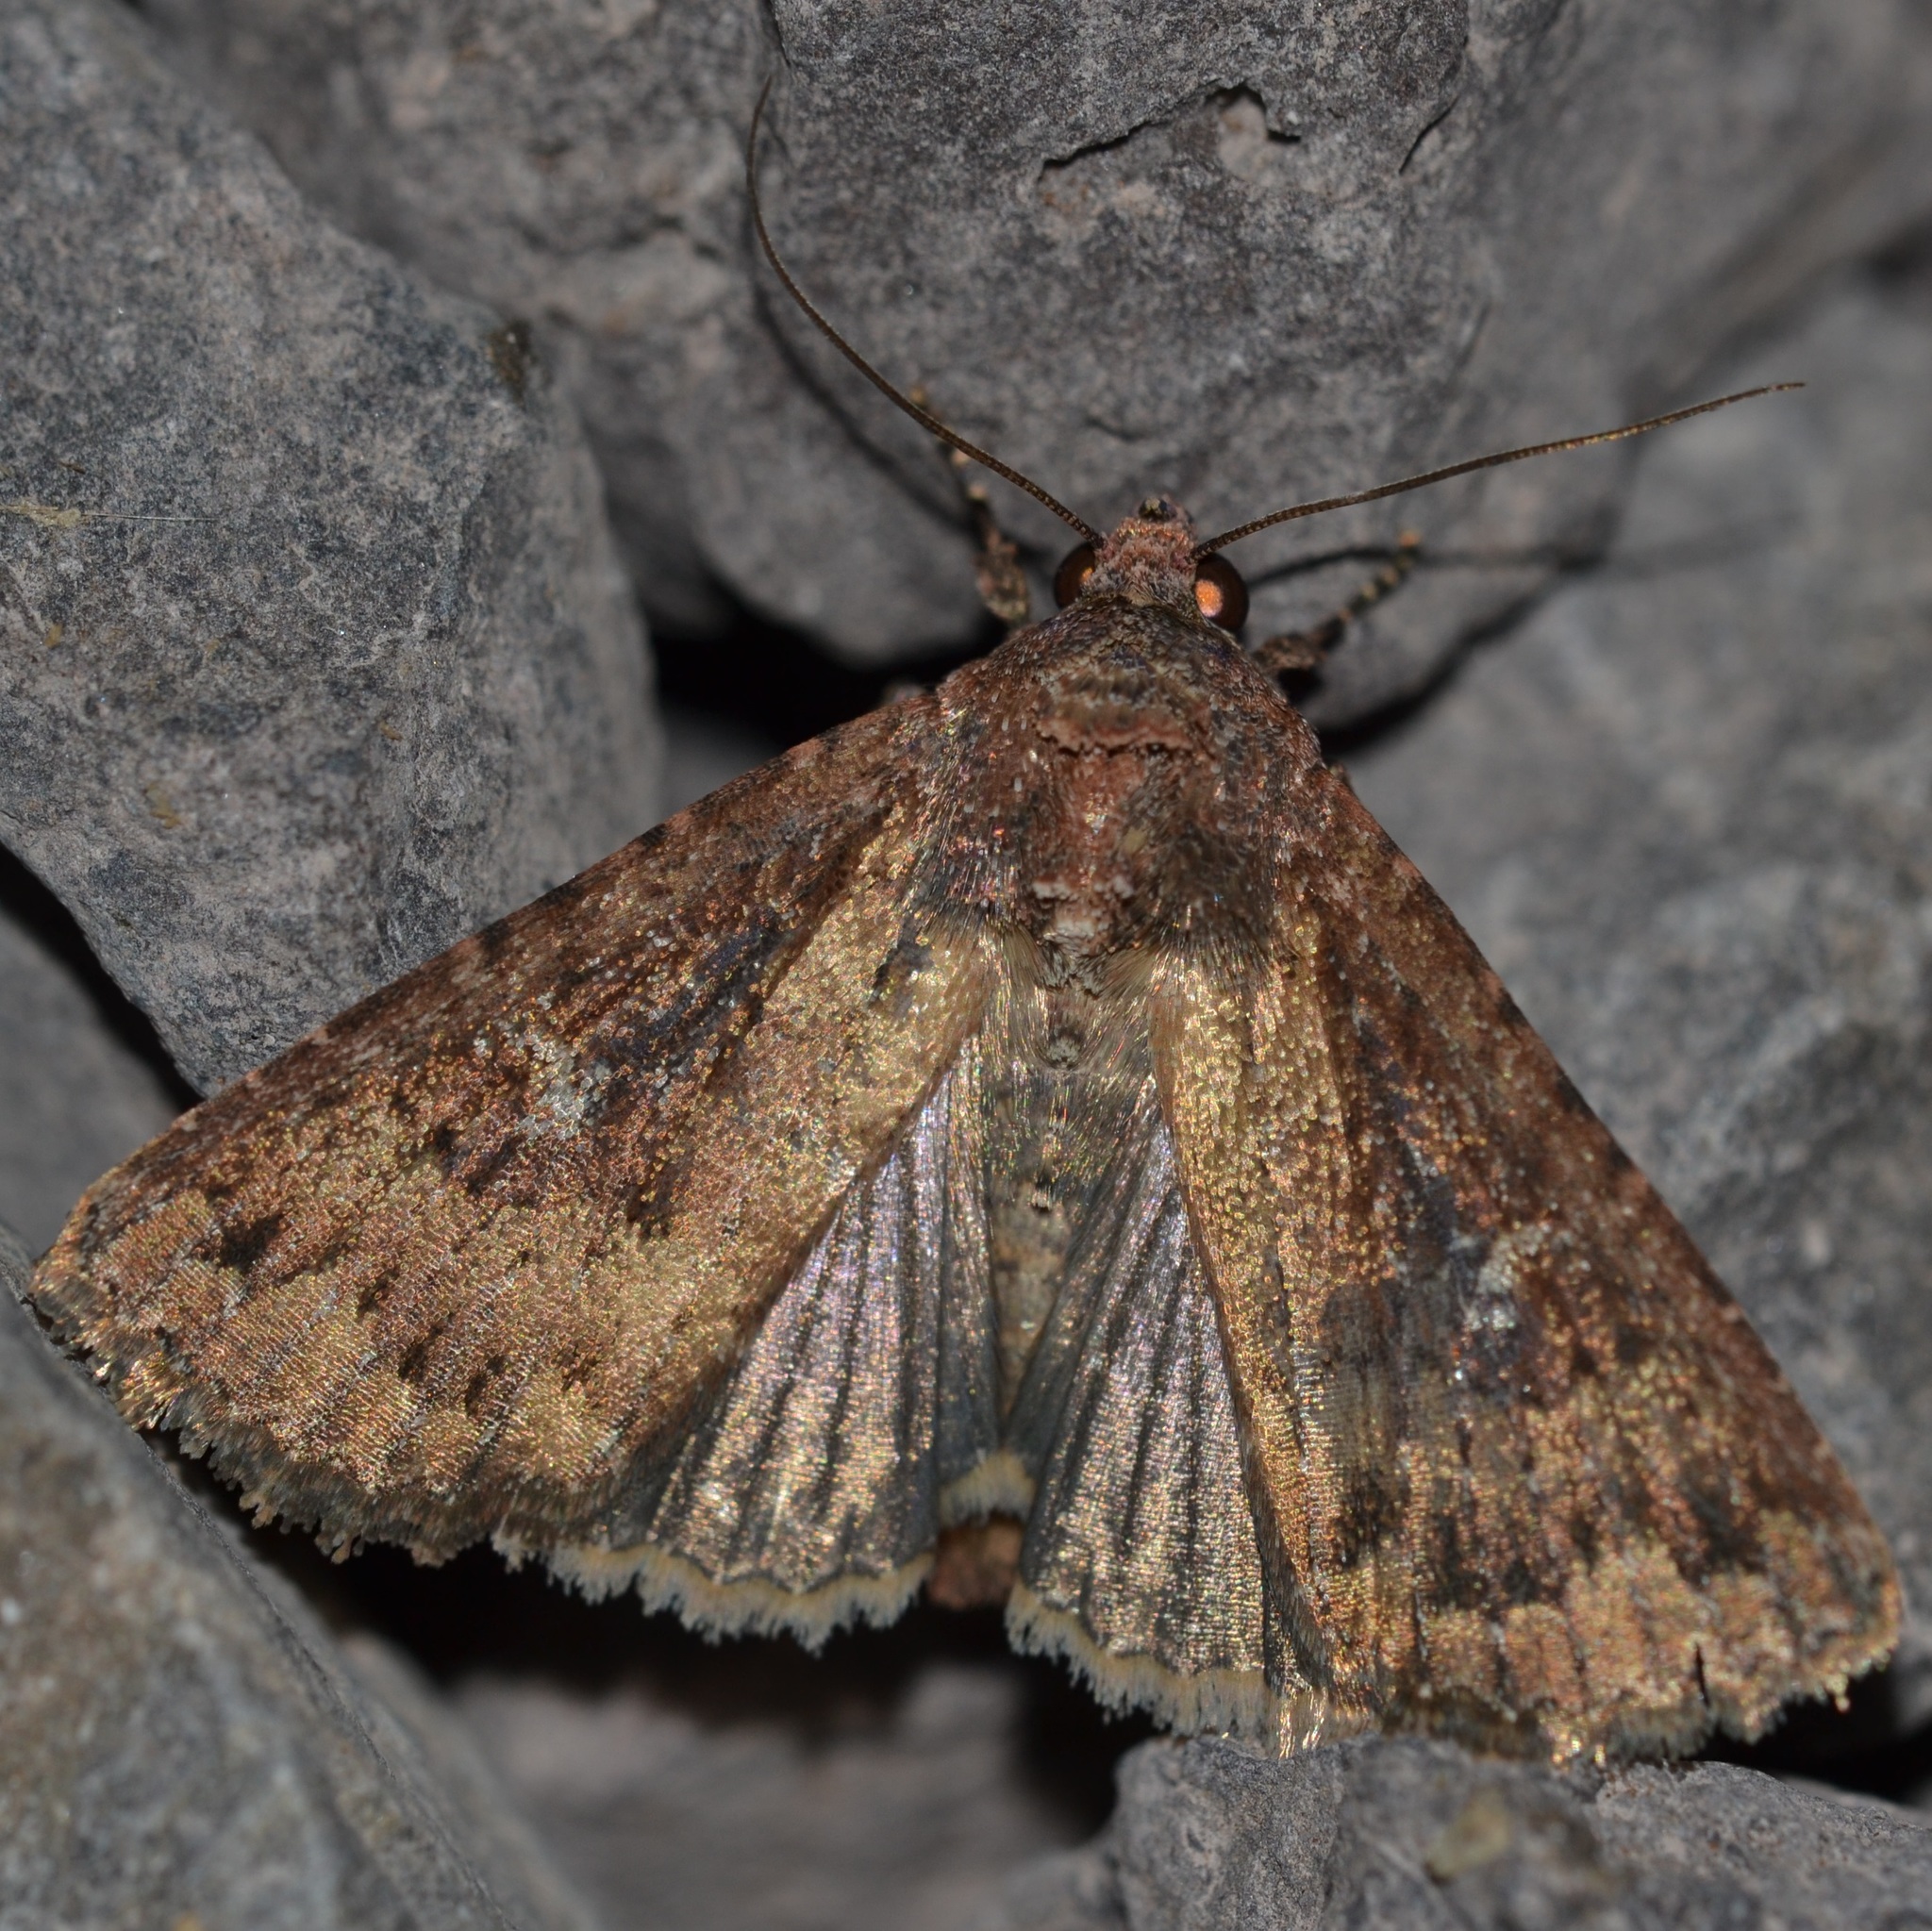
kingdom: Animalia
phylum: Arthropoda
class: Insecta
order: Lepidoptera
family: Noctuidae
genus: Condica
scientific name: Condica illecta
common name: Cutworm
